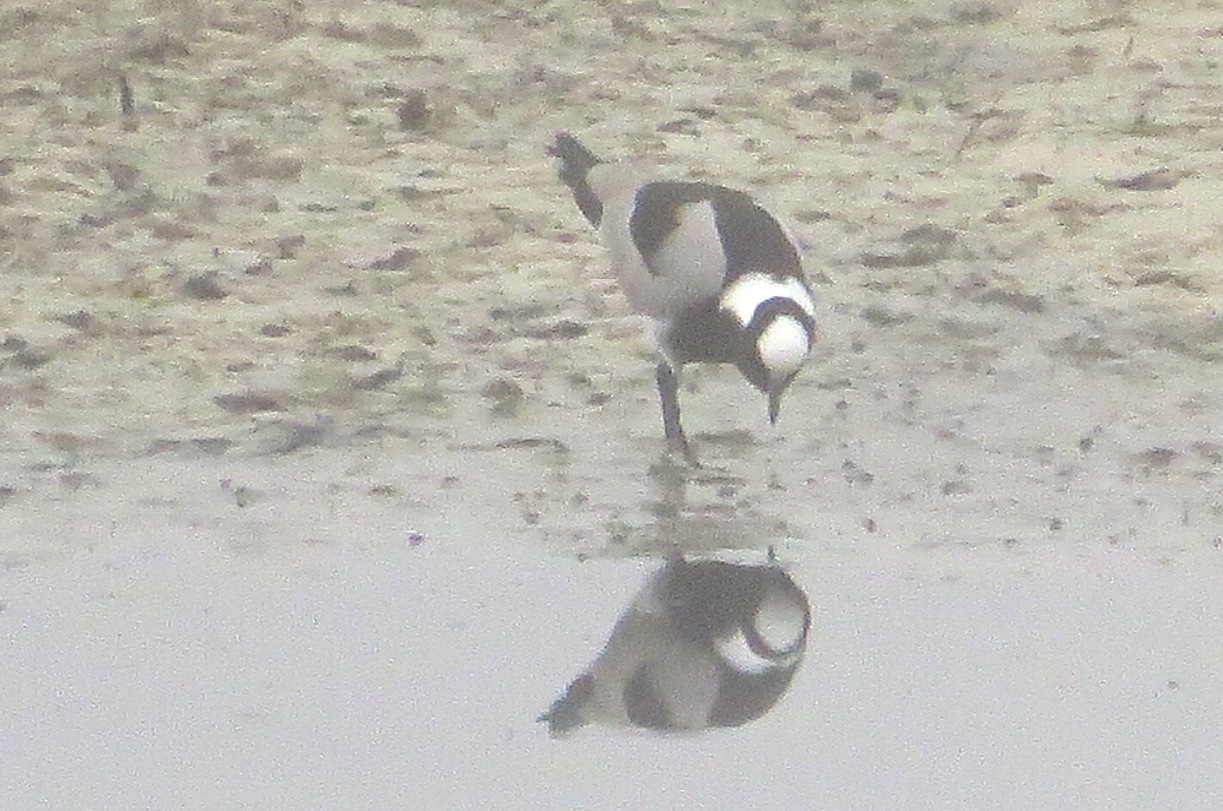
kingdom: Animalia
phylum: Chordata
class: Aves
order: Charadriiformes
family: Charadriidae
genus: Vanellus
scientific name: Vanellus armatus
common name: Blacksmith lapwing
